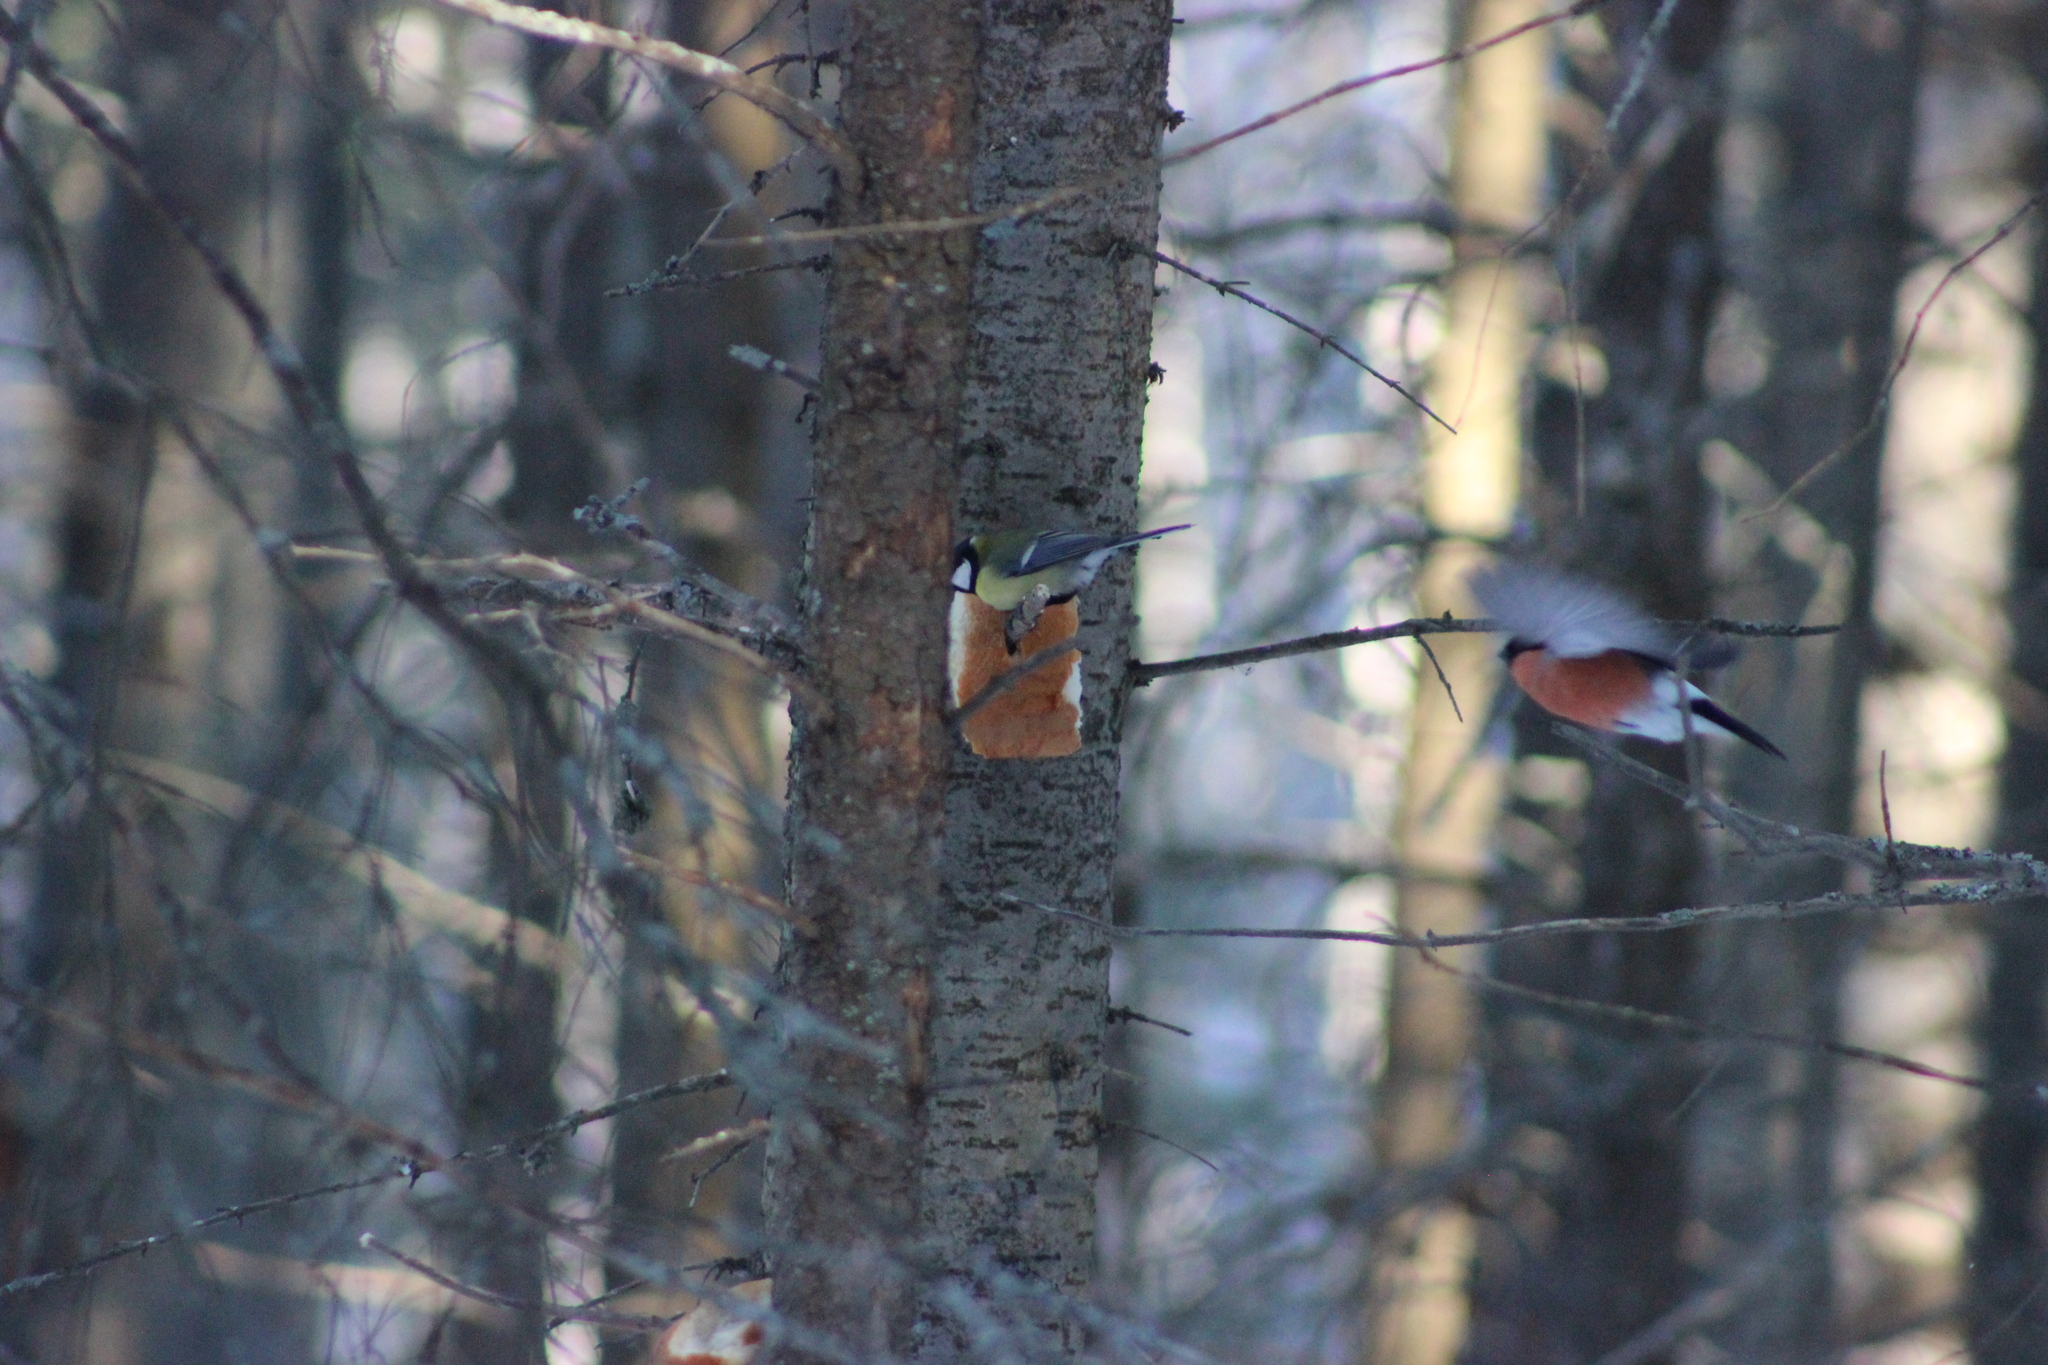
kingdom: Animalia
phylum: Chordata
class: Aves
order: Passeriformes
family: Fringillidae
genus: Pyrrhula
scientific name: Pyrrhula pyrrhula
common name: Eurasian bullfinch
